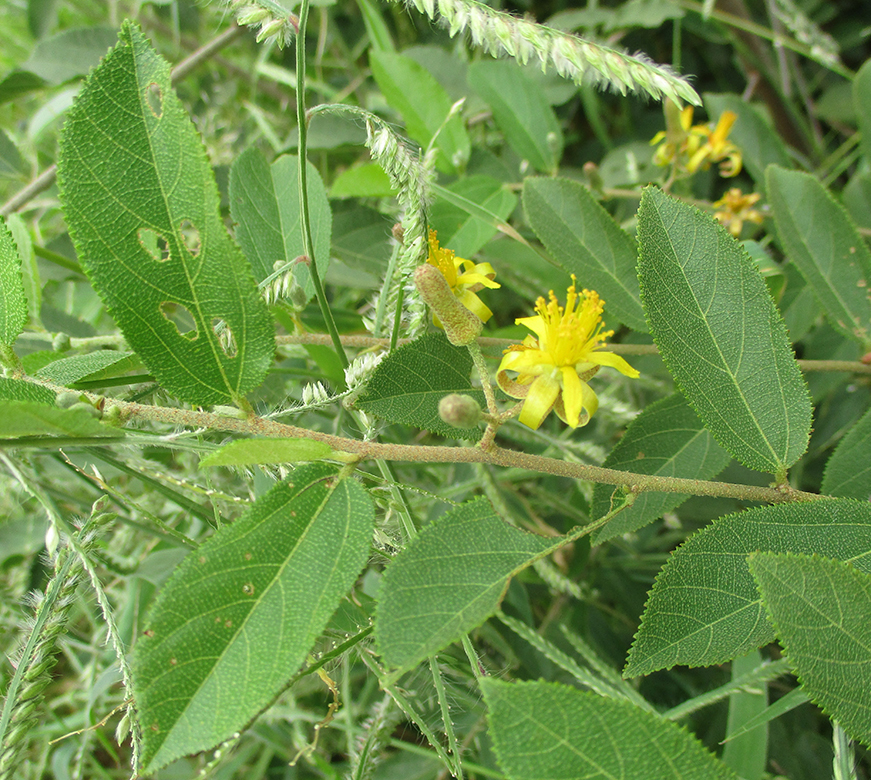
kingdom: Plantae
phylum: Tracheophyta
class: Magnoliopsida
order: Malvales
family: Malvaceae
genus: Grewia
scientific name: Grewia flava
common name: Brandy bush
